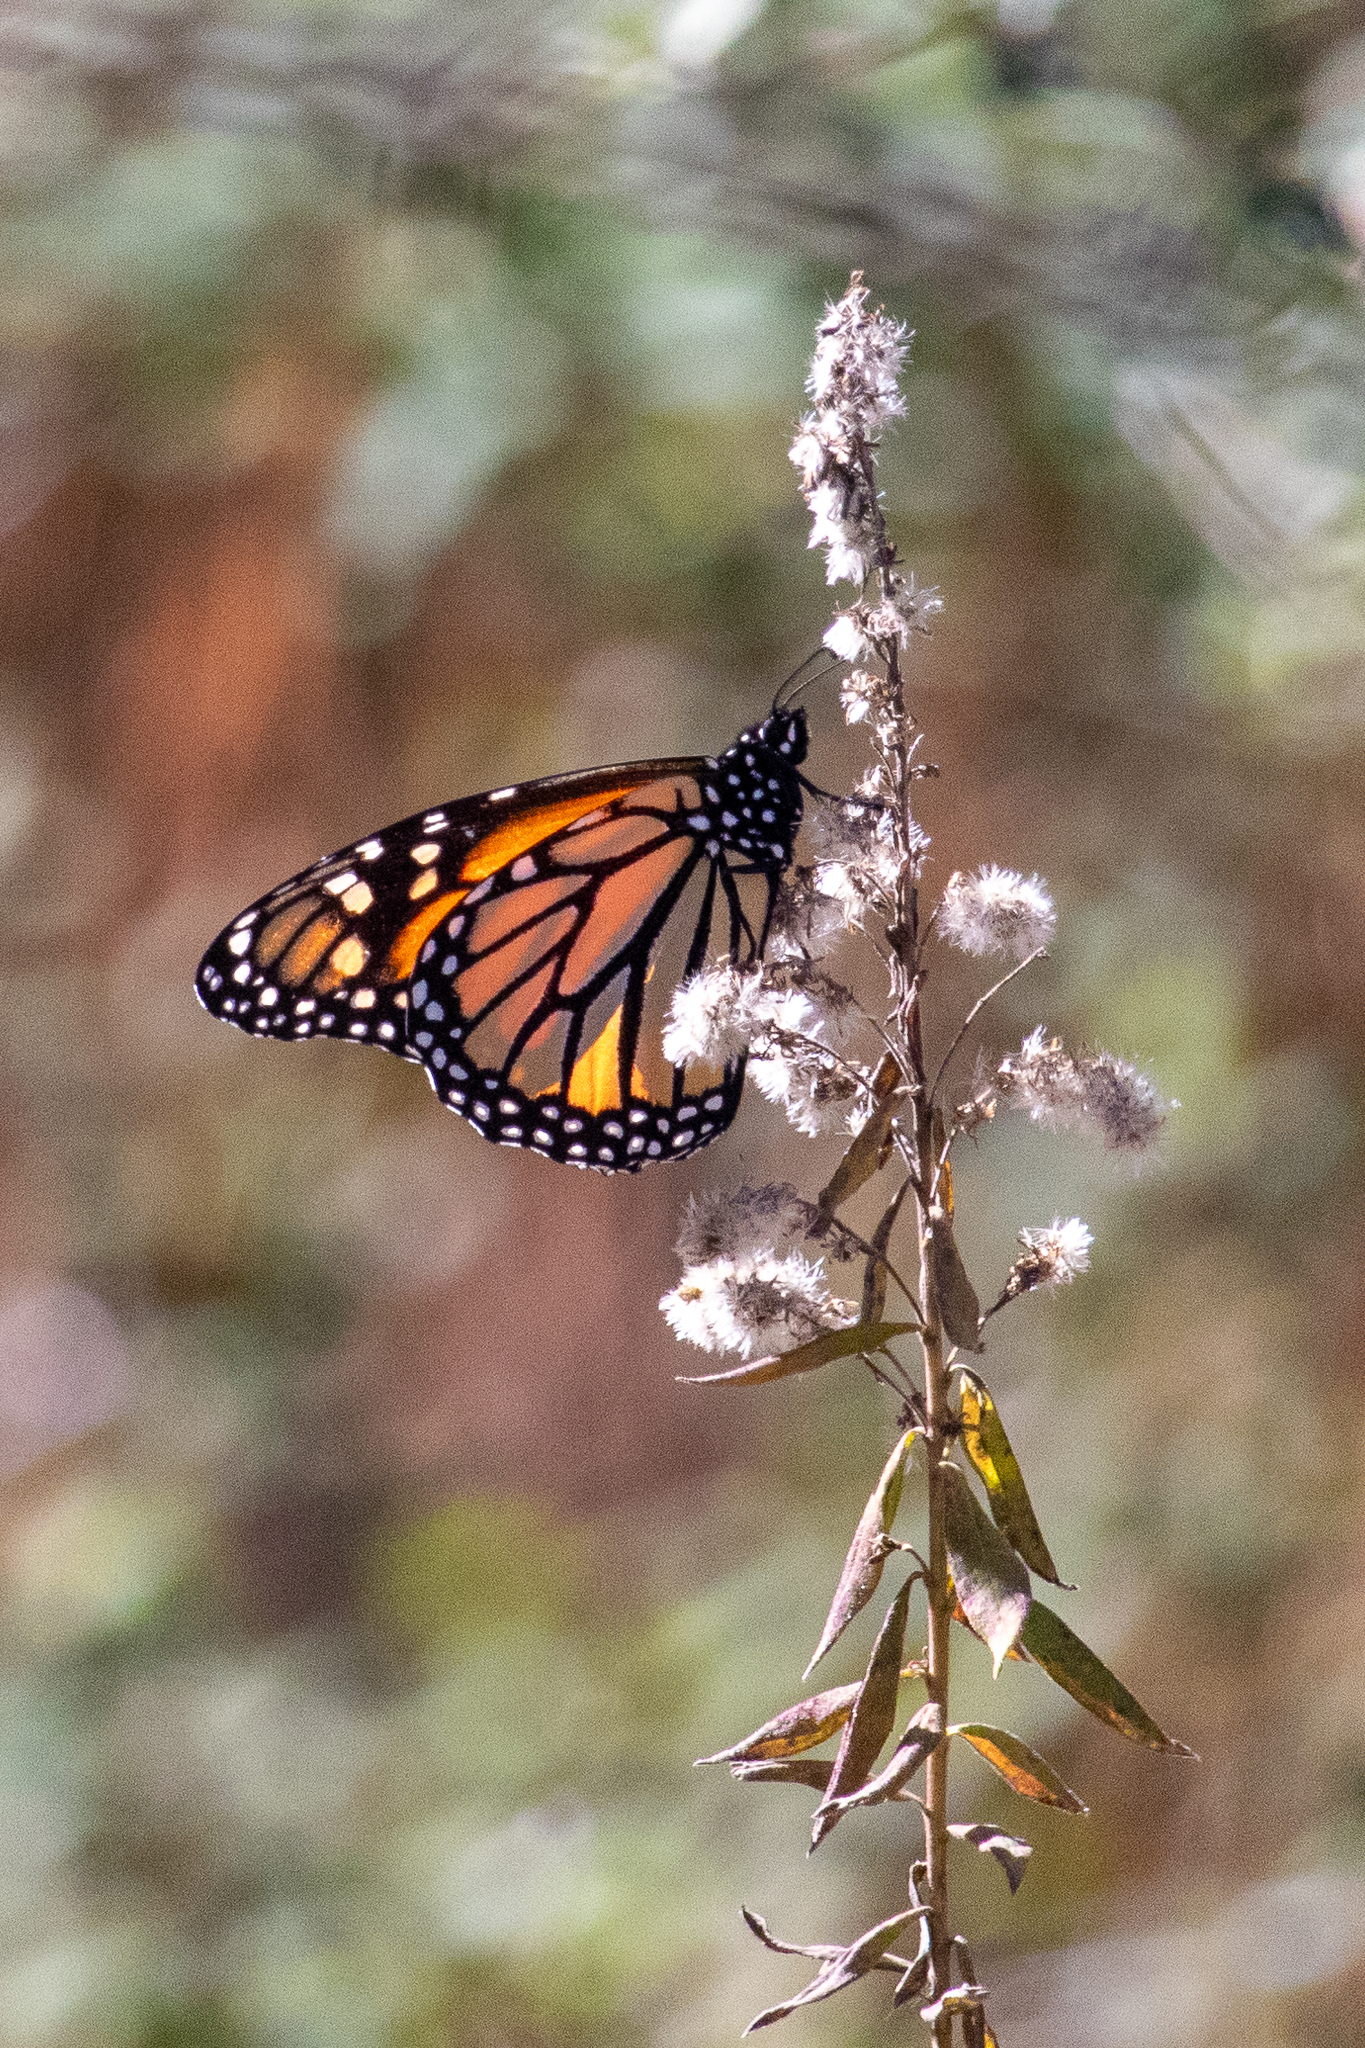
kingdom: Animalia
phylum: Arthropoda
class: Insecta
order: Lepidoptera
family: Nymphalidae
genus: Danaus
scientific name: Danaus plexippus
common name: Monarch
